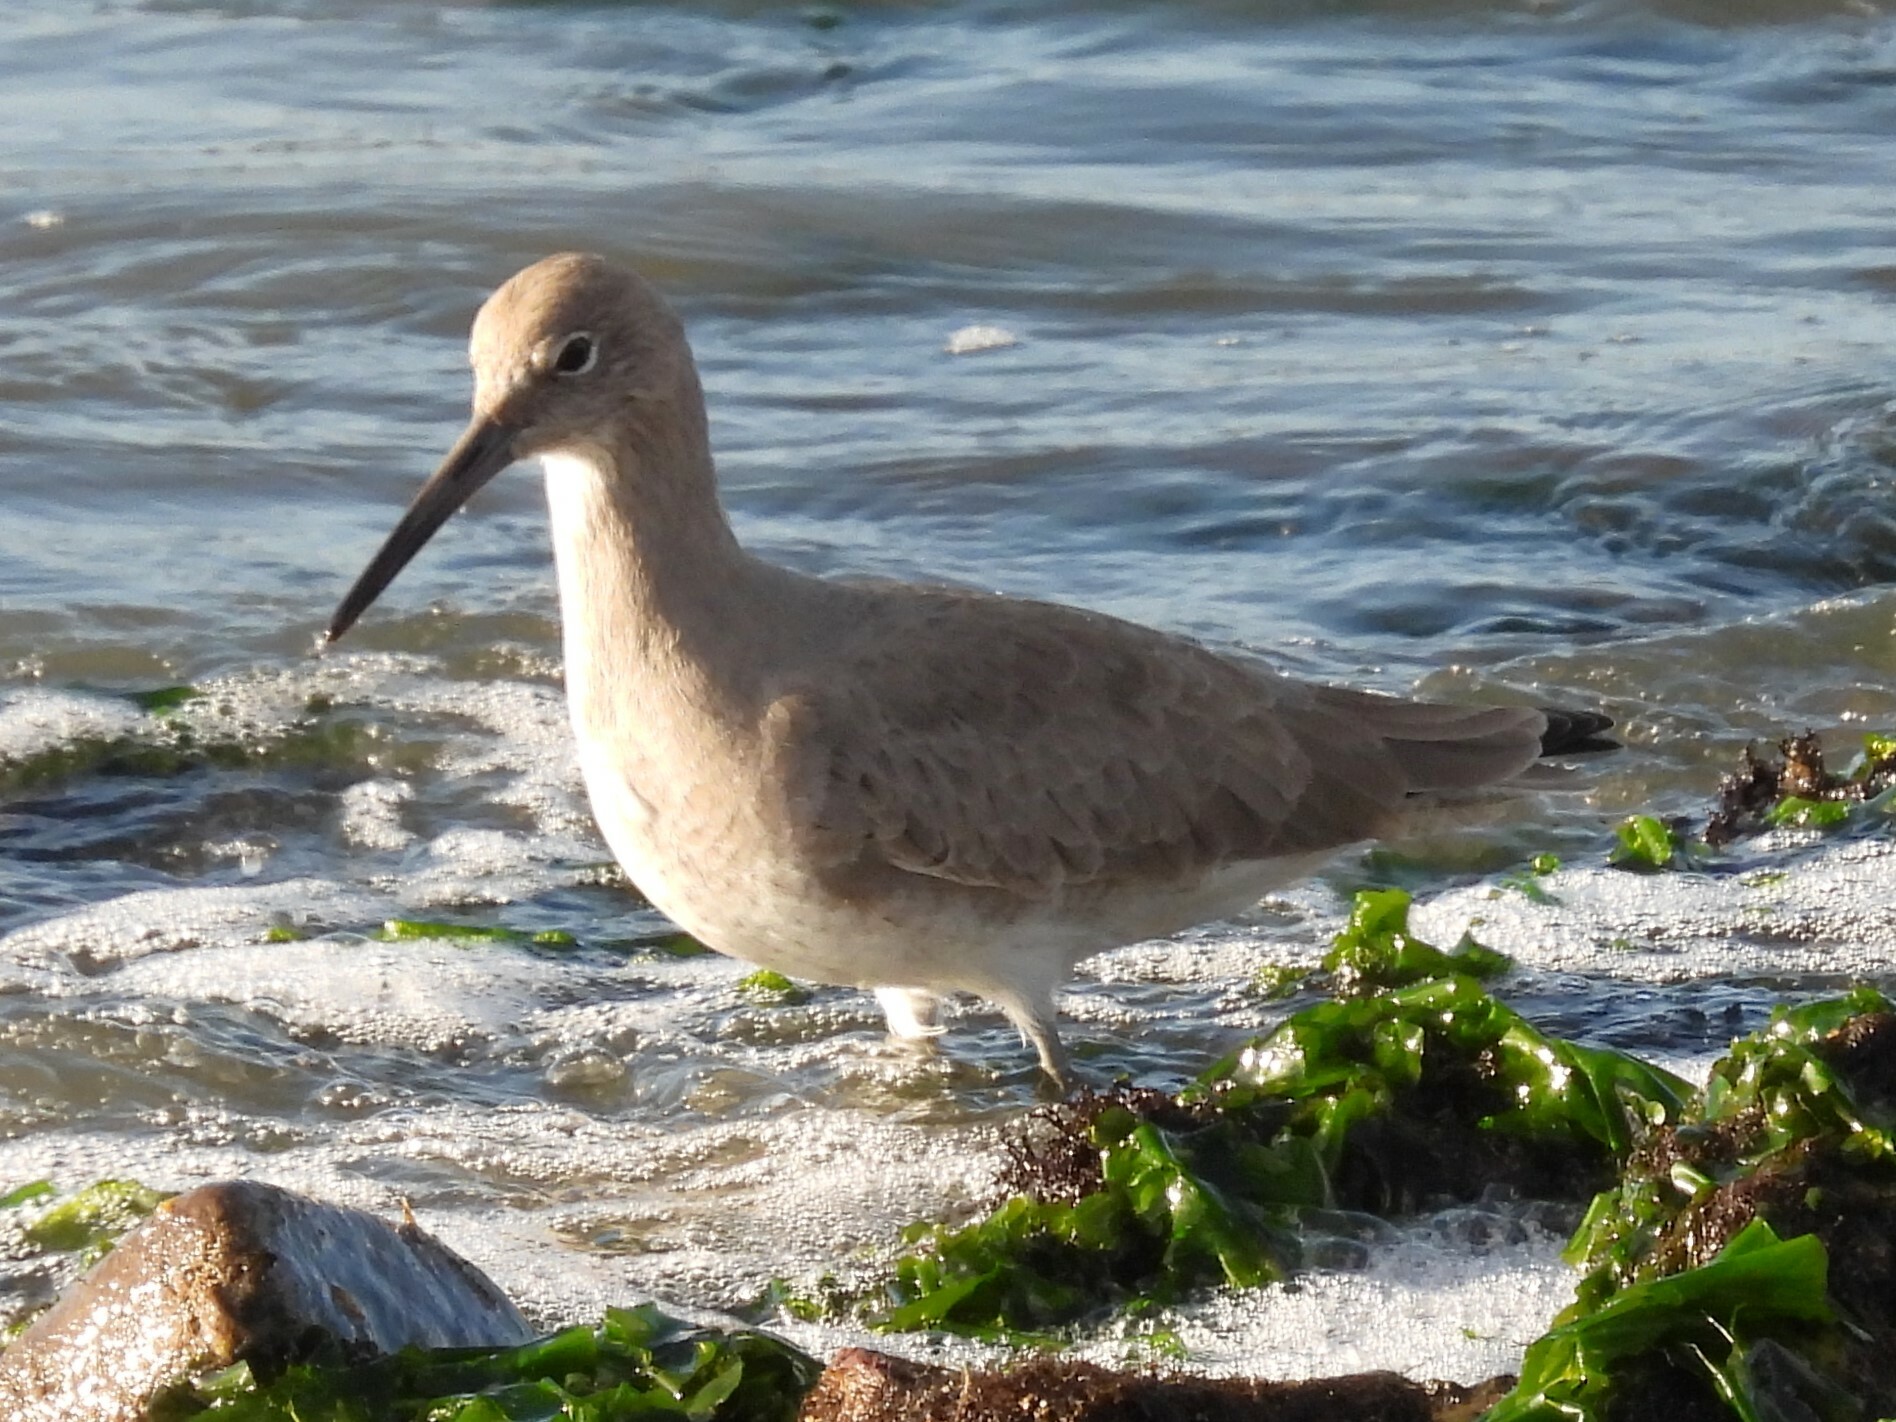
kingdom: Animalia
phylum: Chordata
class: Aves
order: Charadriiformes
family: Scolopacidae
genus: Tringa
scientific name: Tringa semipalmata
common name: Willet
